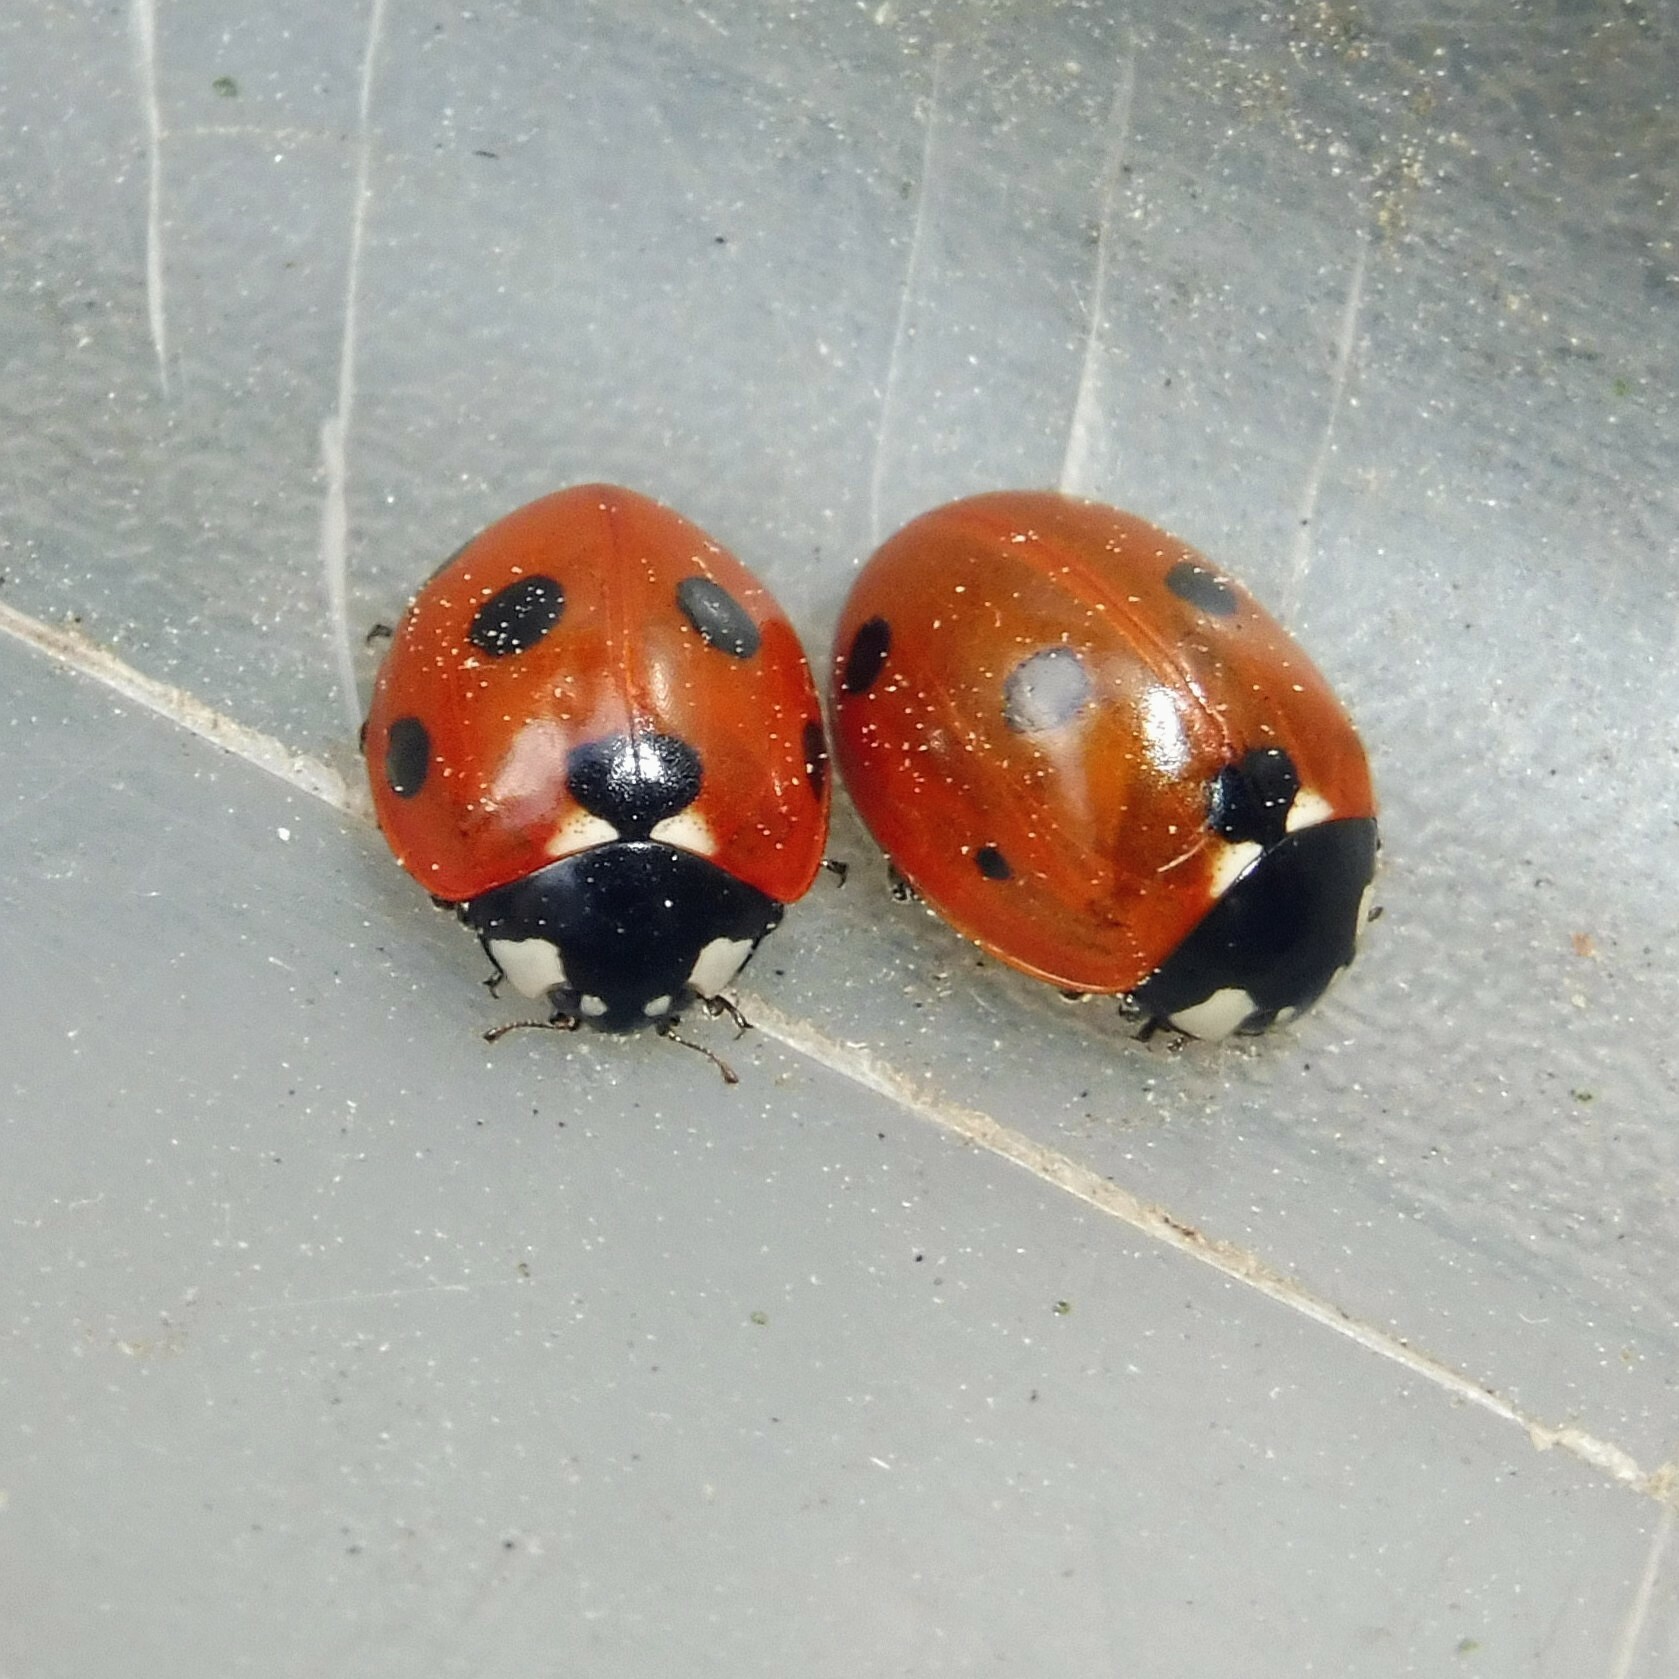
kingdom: Animalia
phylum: Arthropoda
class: Insecta
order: Coleoptera
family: Coccinellidae
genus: Coccinella
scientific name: Coccinella septempunctata
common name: Sevenspotted lady beetle
